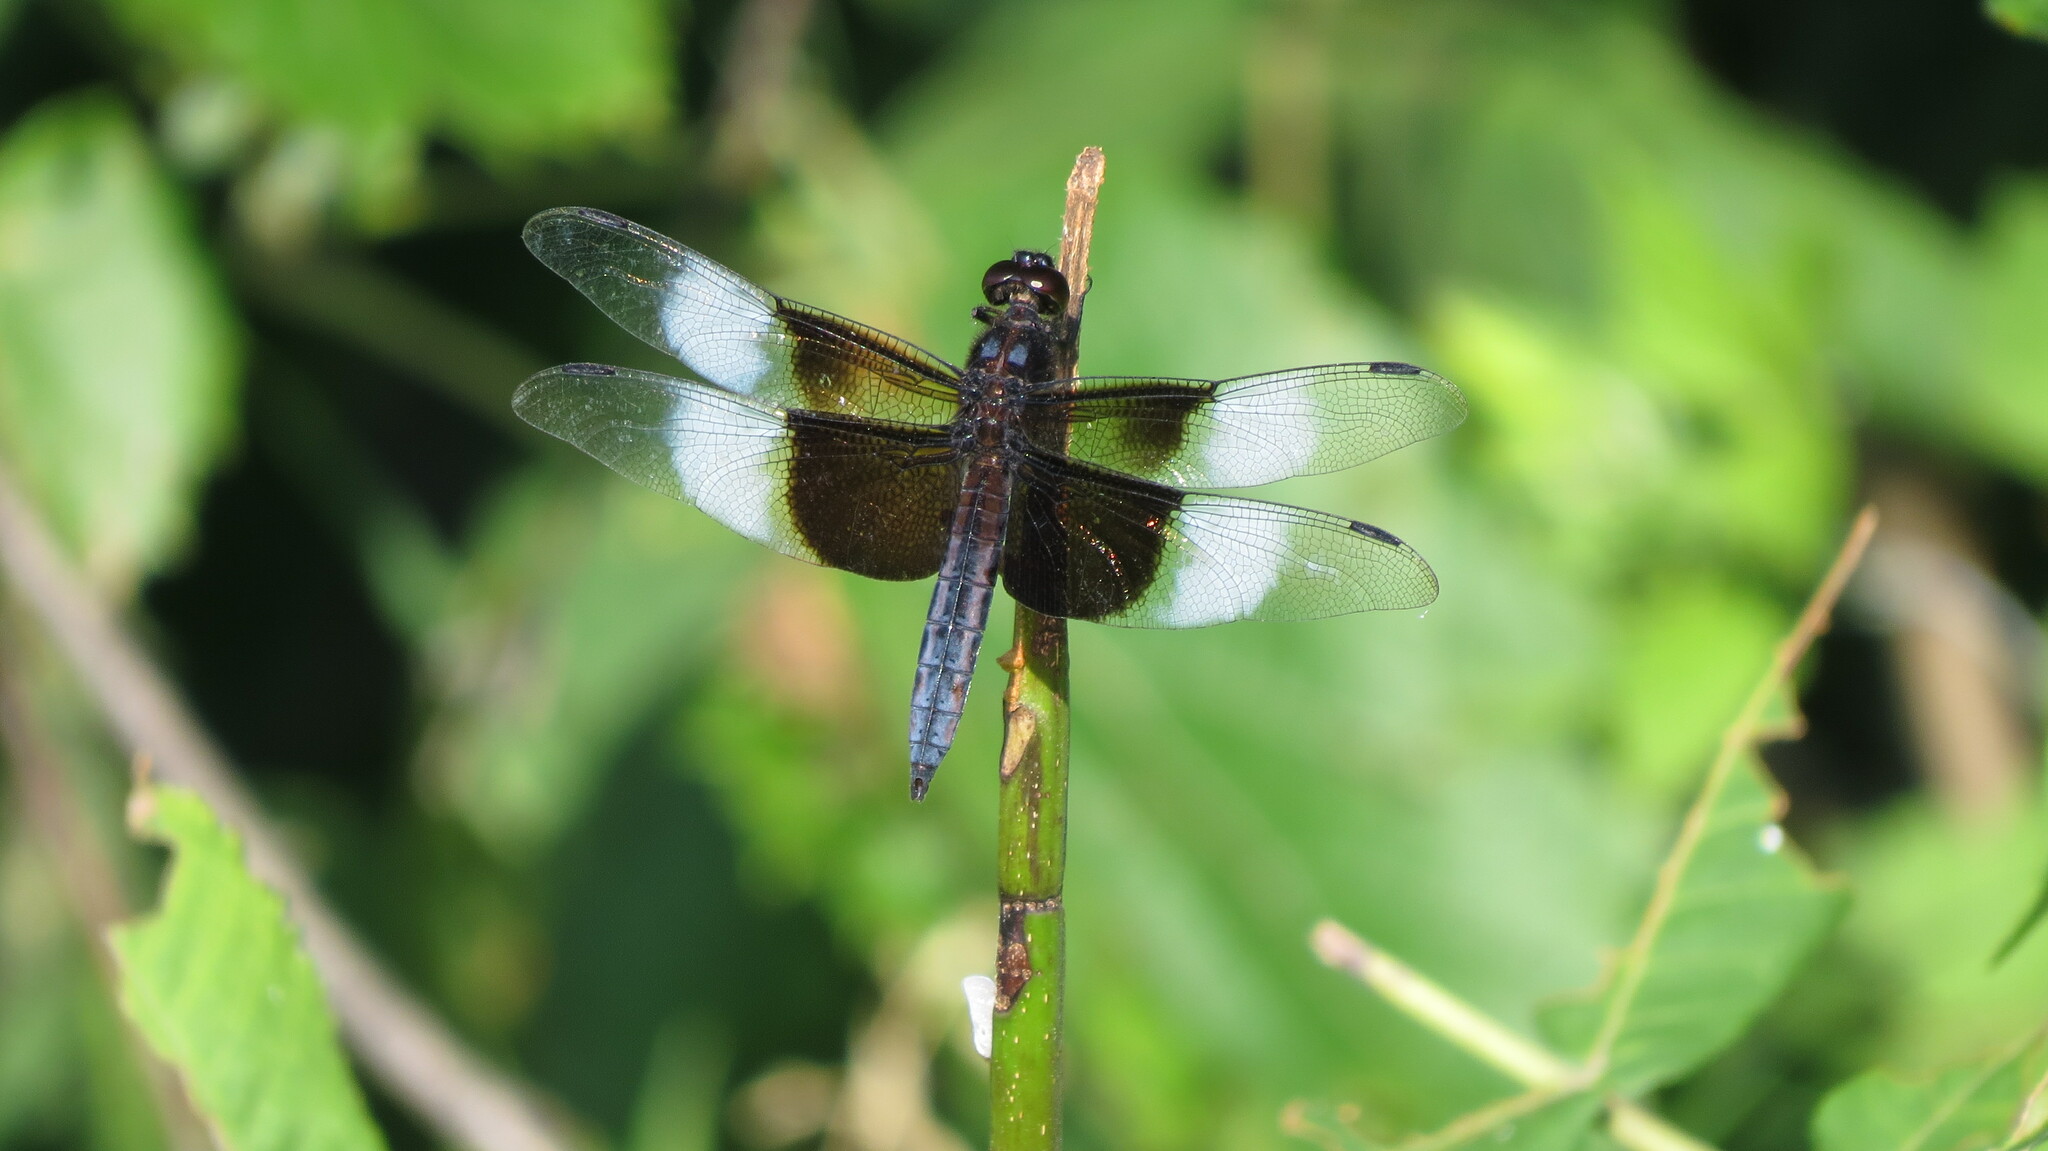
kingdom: Animalia
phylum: Arthropoda
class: Insecta
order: Odonata
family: Libellulidae
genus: Libellula
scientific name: Libellula luctuosa
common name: Widow skimmer
